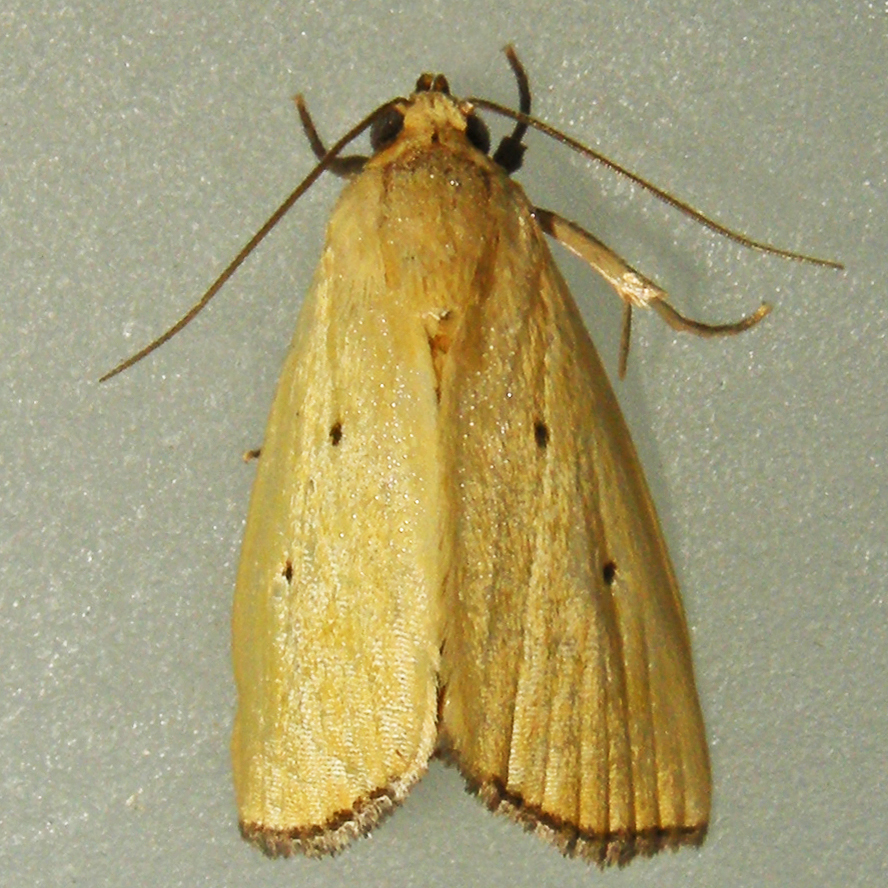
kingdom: Animalia
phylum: Arthropoda
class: Insecta
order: Lepidoptera
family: Noctuidae
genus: Marimatha
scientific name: Marimatha nigrofimbria
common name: Black-bordered lemon moth
